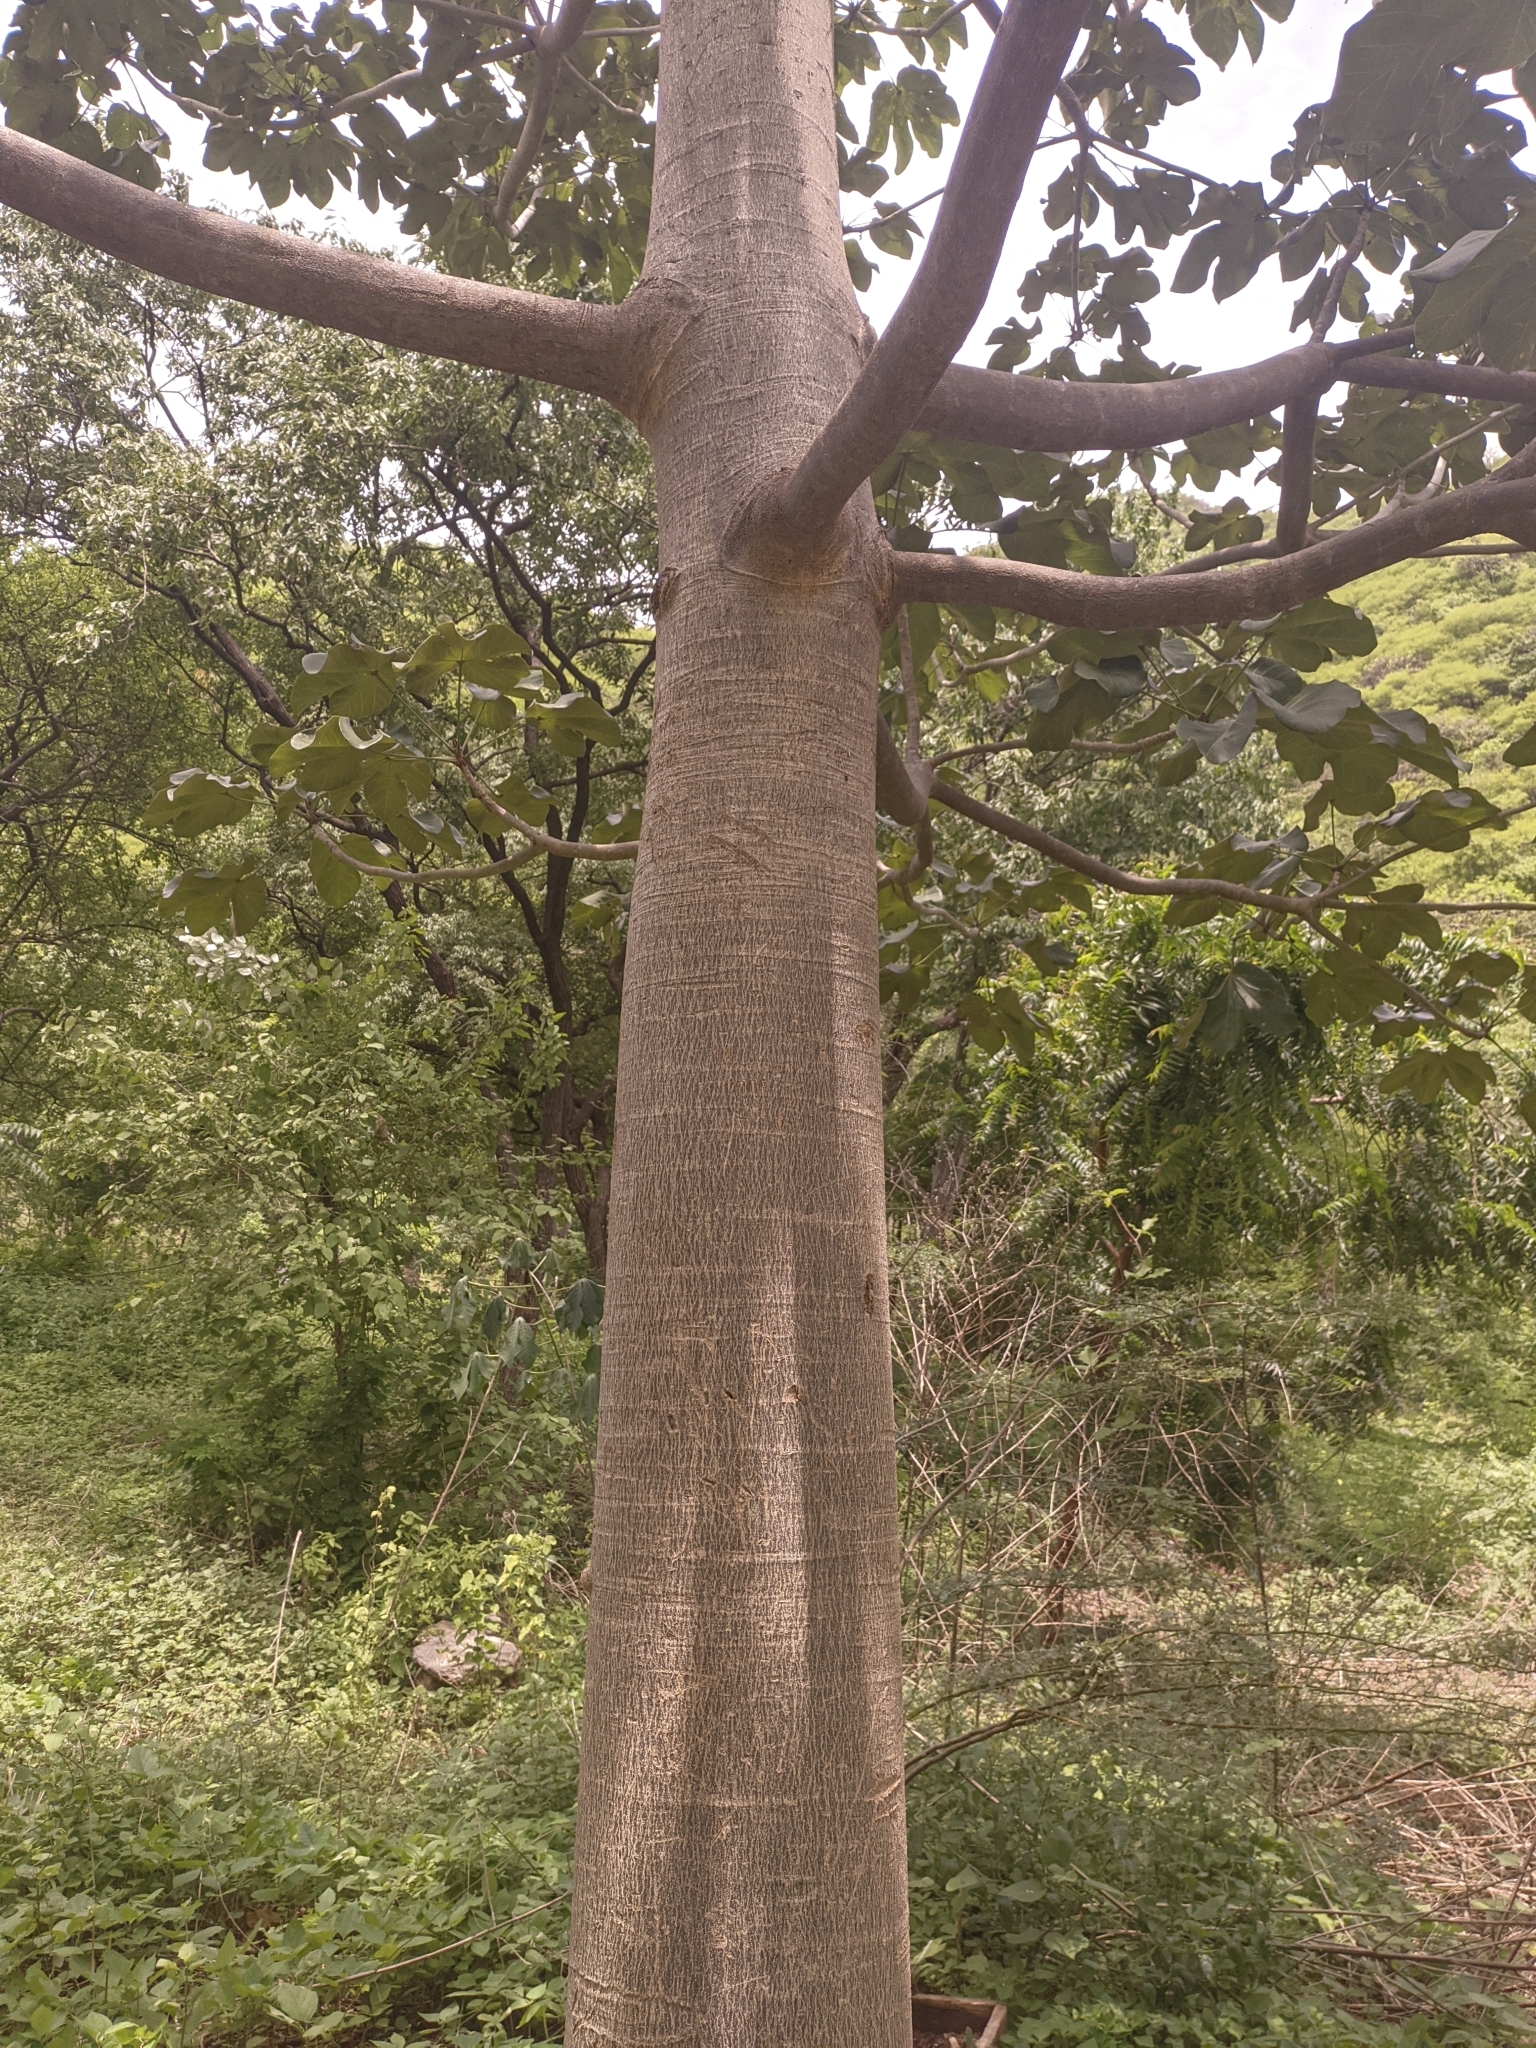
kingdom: Plantae
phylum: Tracheophyta
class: Magnoliopsida
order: Malvales
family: Malvaceae
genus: Sterculia
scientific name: Sterculia apetala
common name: Panama tree
